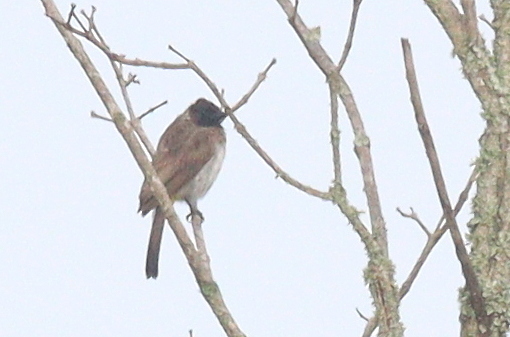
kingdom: Animalia
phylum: Chordata
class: Aves
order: Passeriformes
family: Pycnonotidae
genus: Pycnonotus
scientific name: Pycnonotus barbatus
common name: Common bulbul
